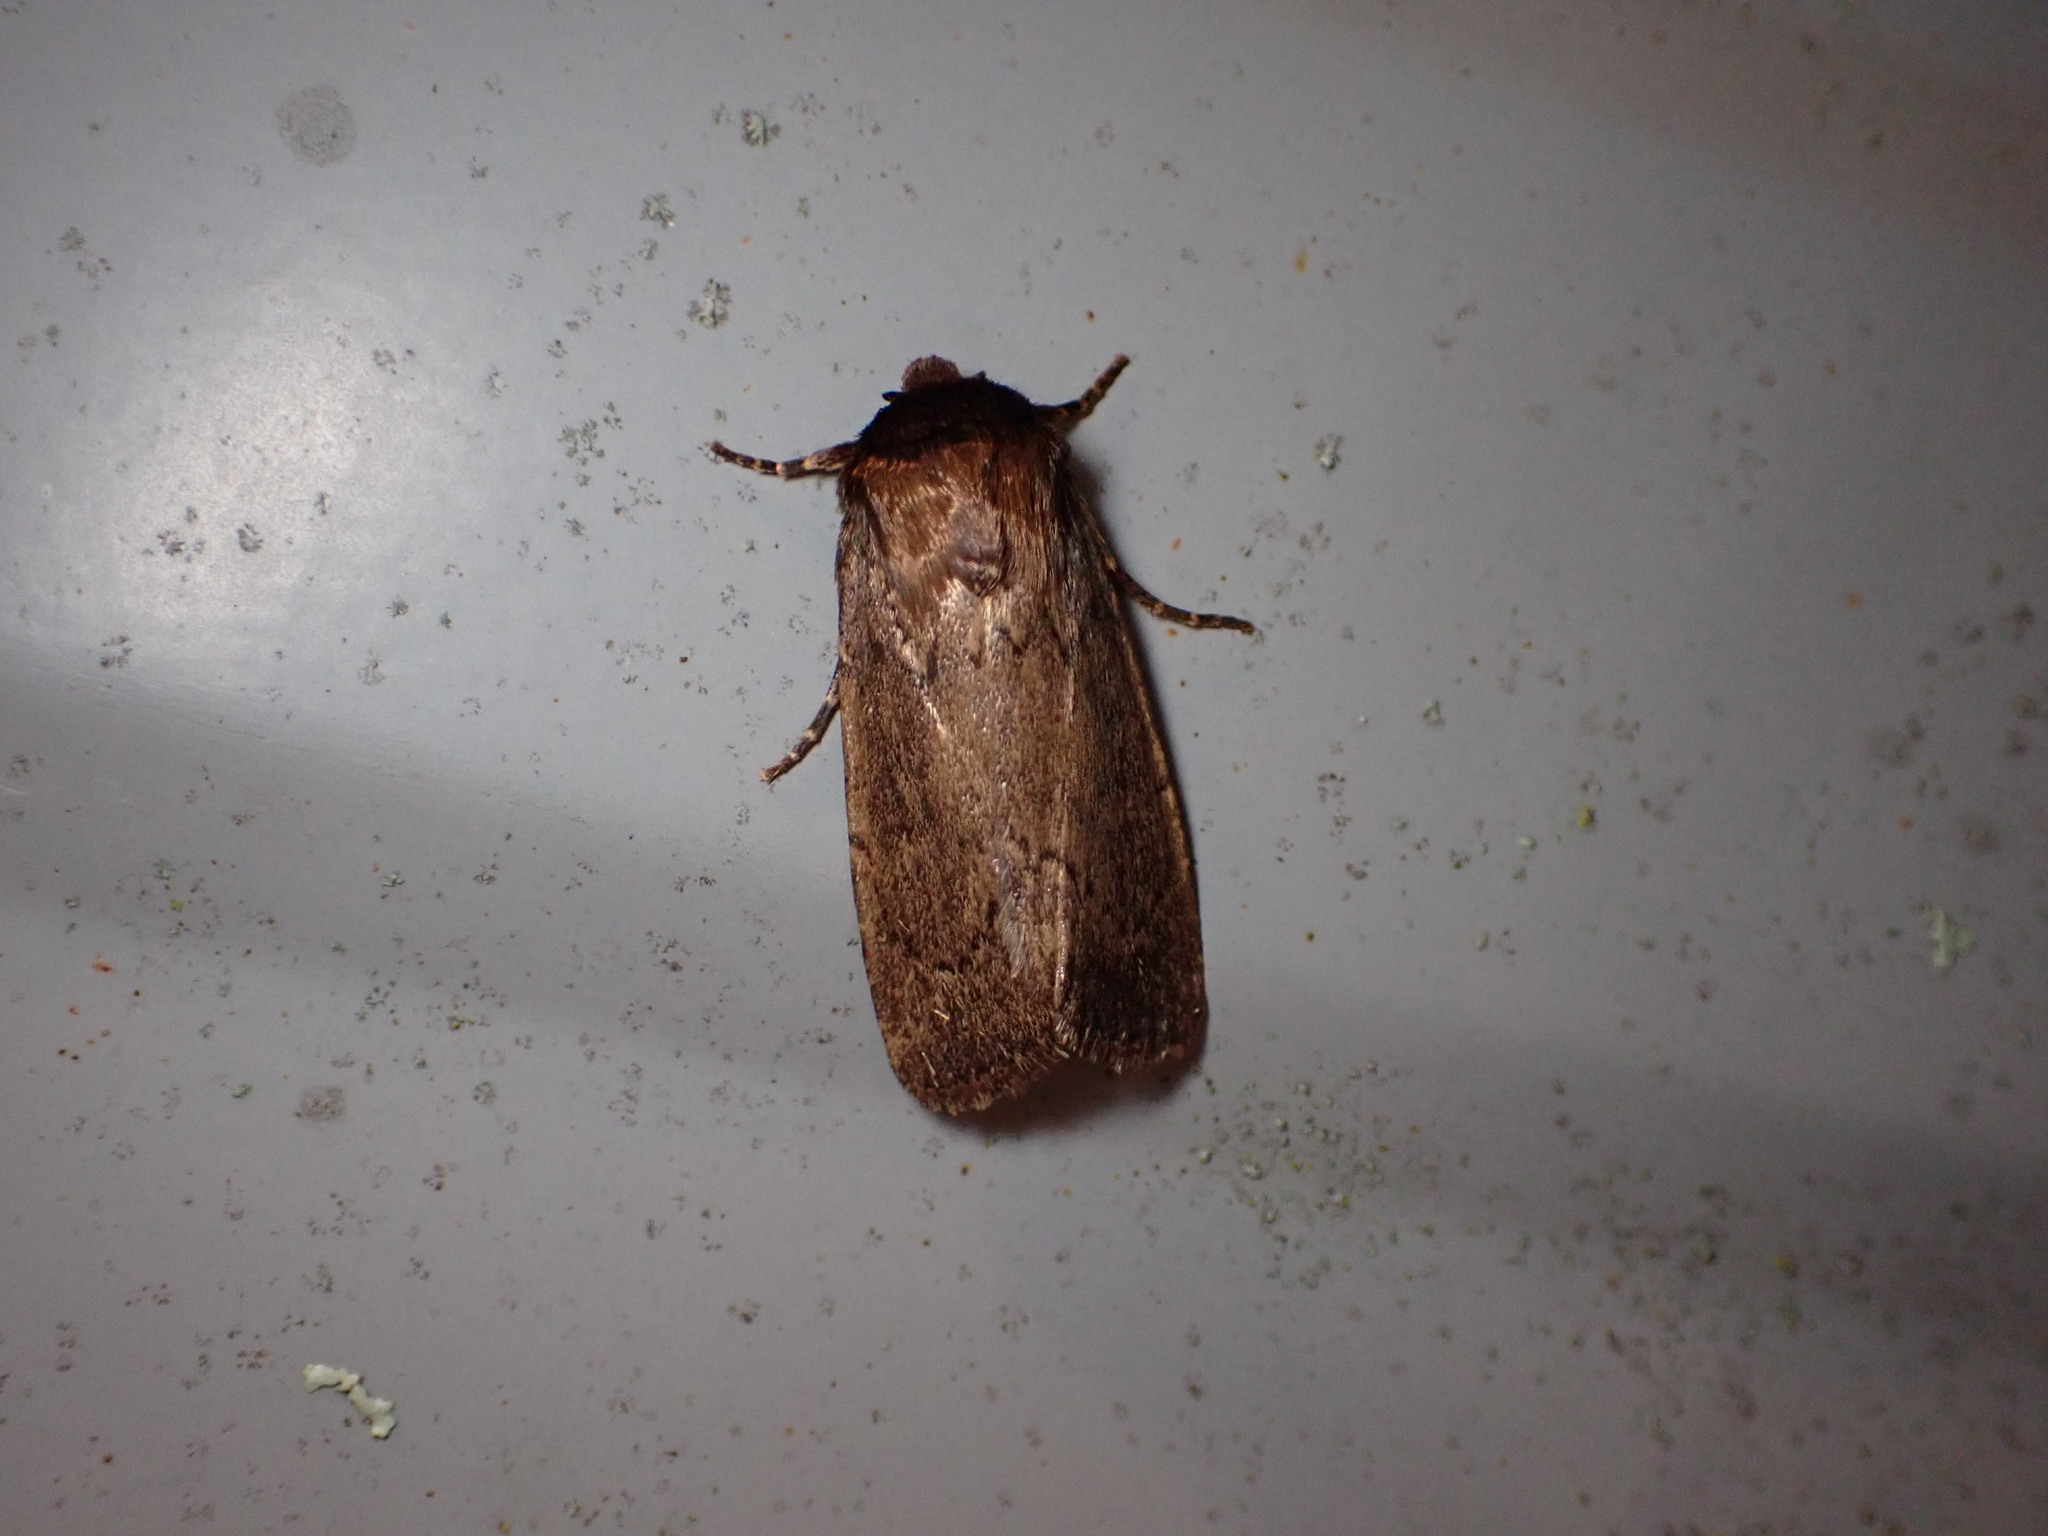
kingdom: Animalia
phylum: Arthropoda
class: Insecta
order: Lepidoptera
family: Noctuidae
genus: Bityla
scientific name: Bityla defigurata
